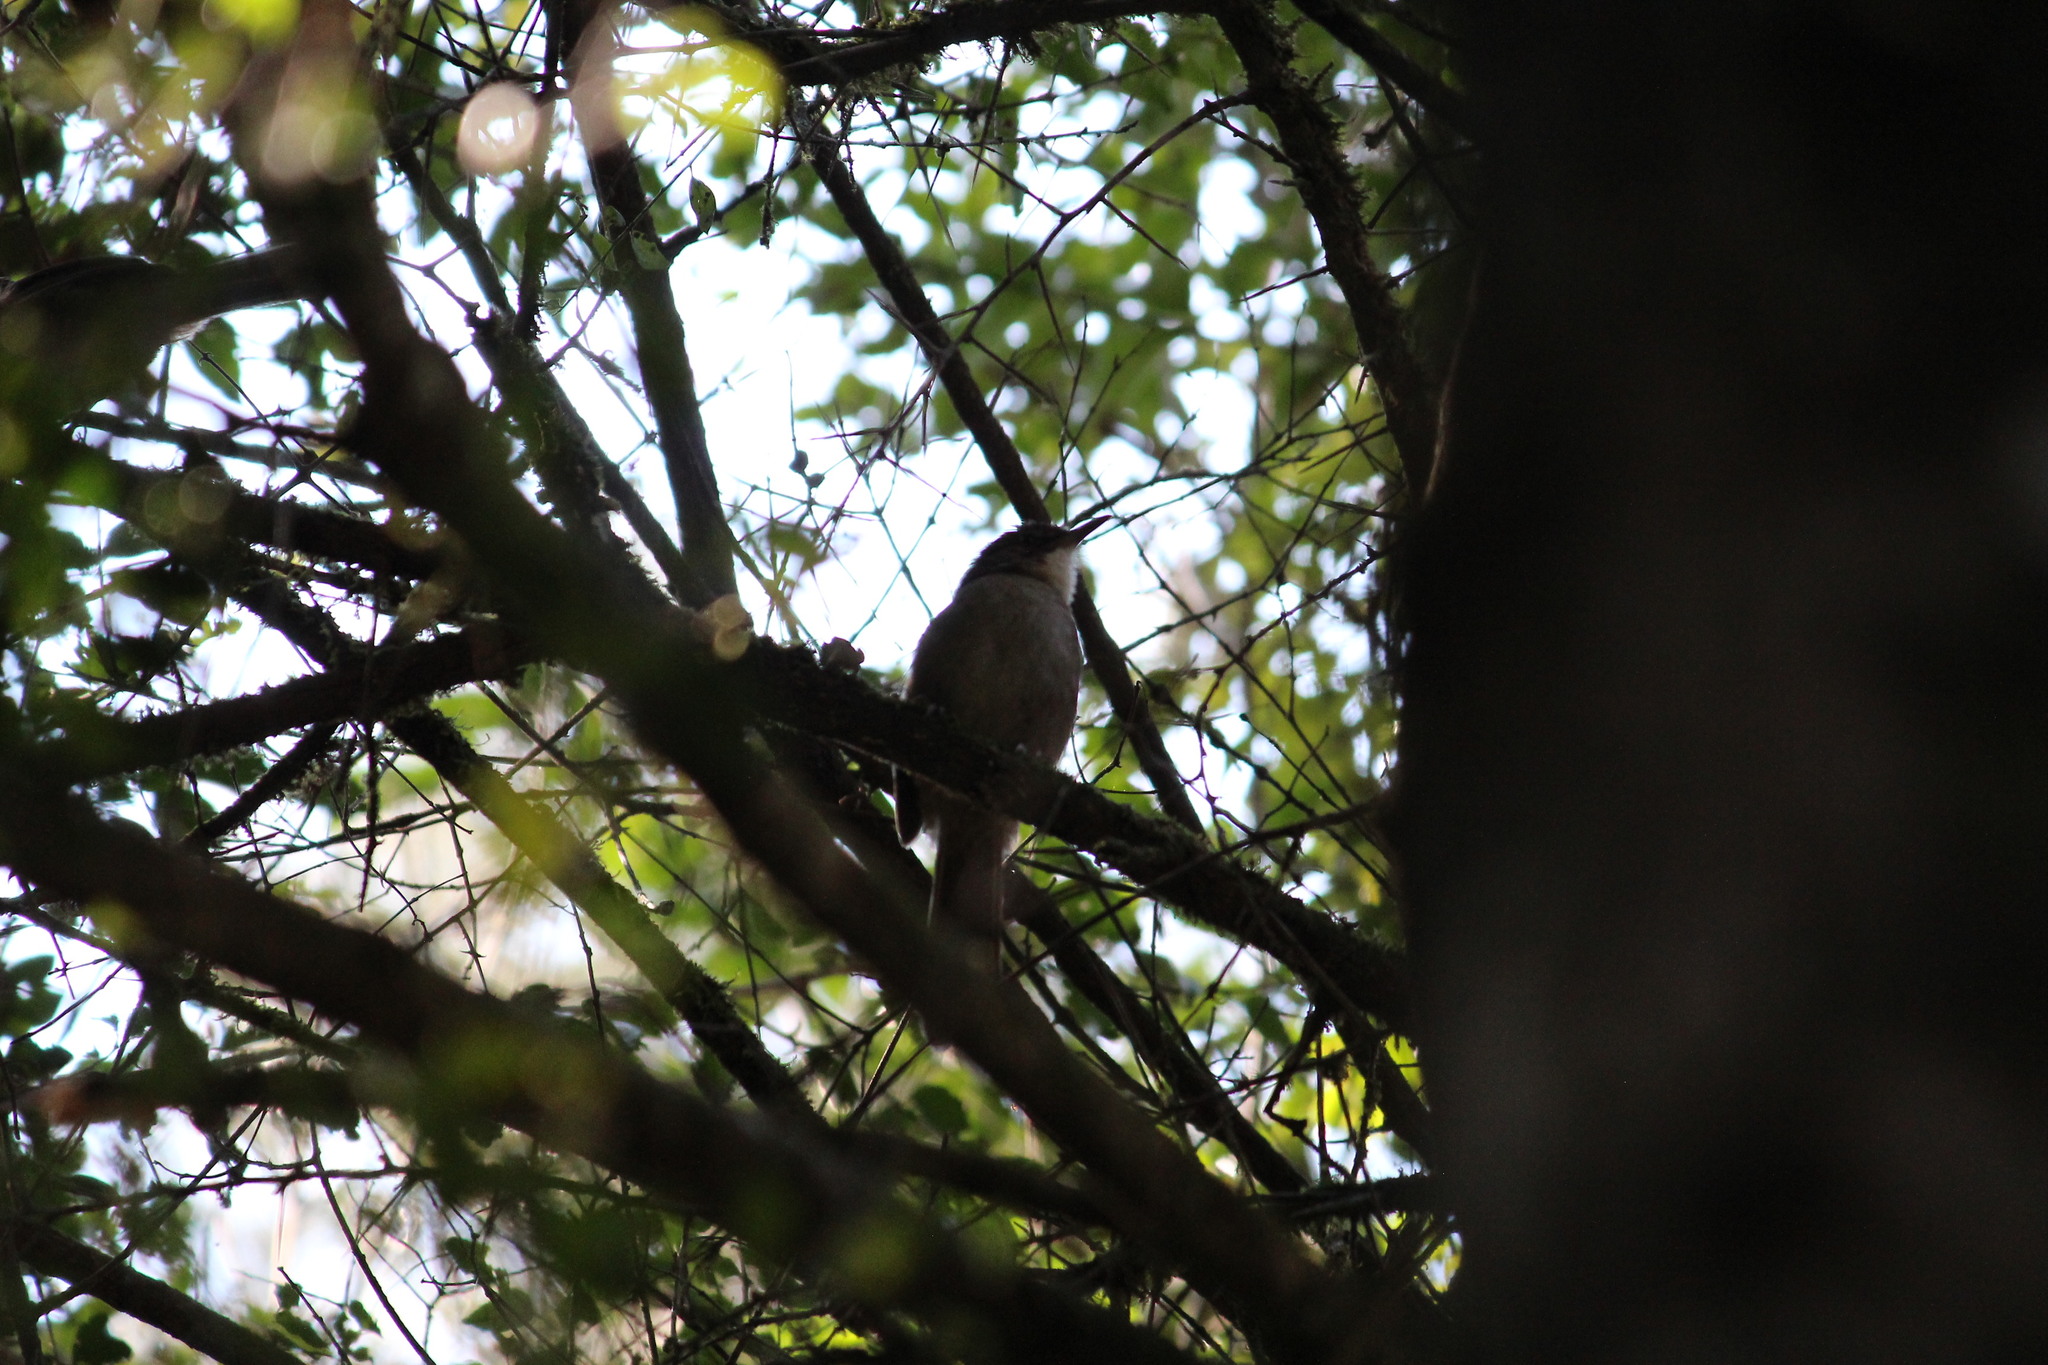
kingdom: Animalia
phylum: Chordata
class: Aves
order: Passeriformes
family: Pycnonotidae
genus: Phyllastrephus
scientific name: Phyllastrephus terrestris
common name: Terrestrial brownbul
